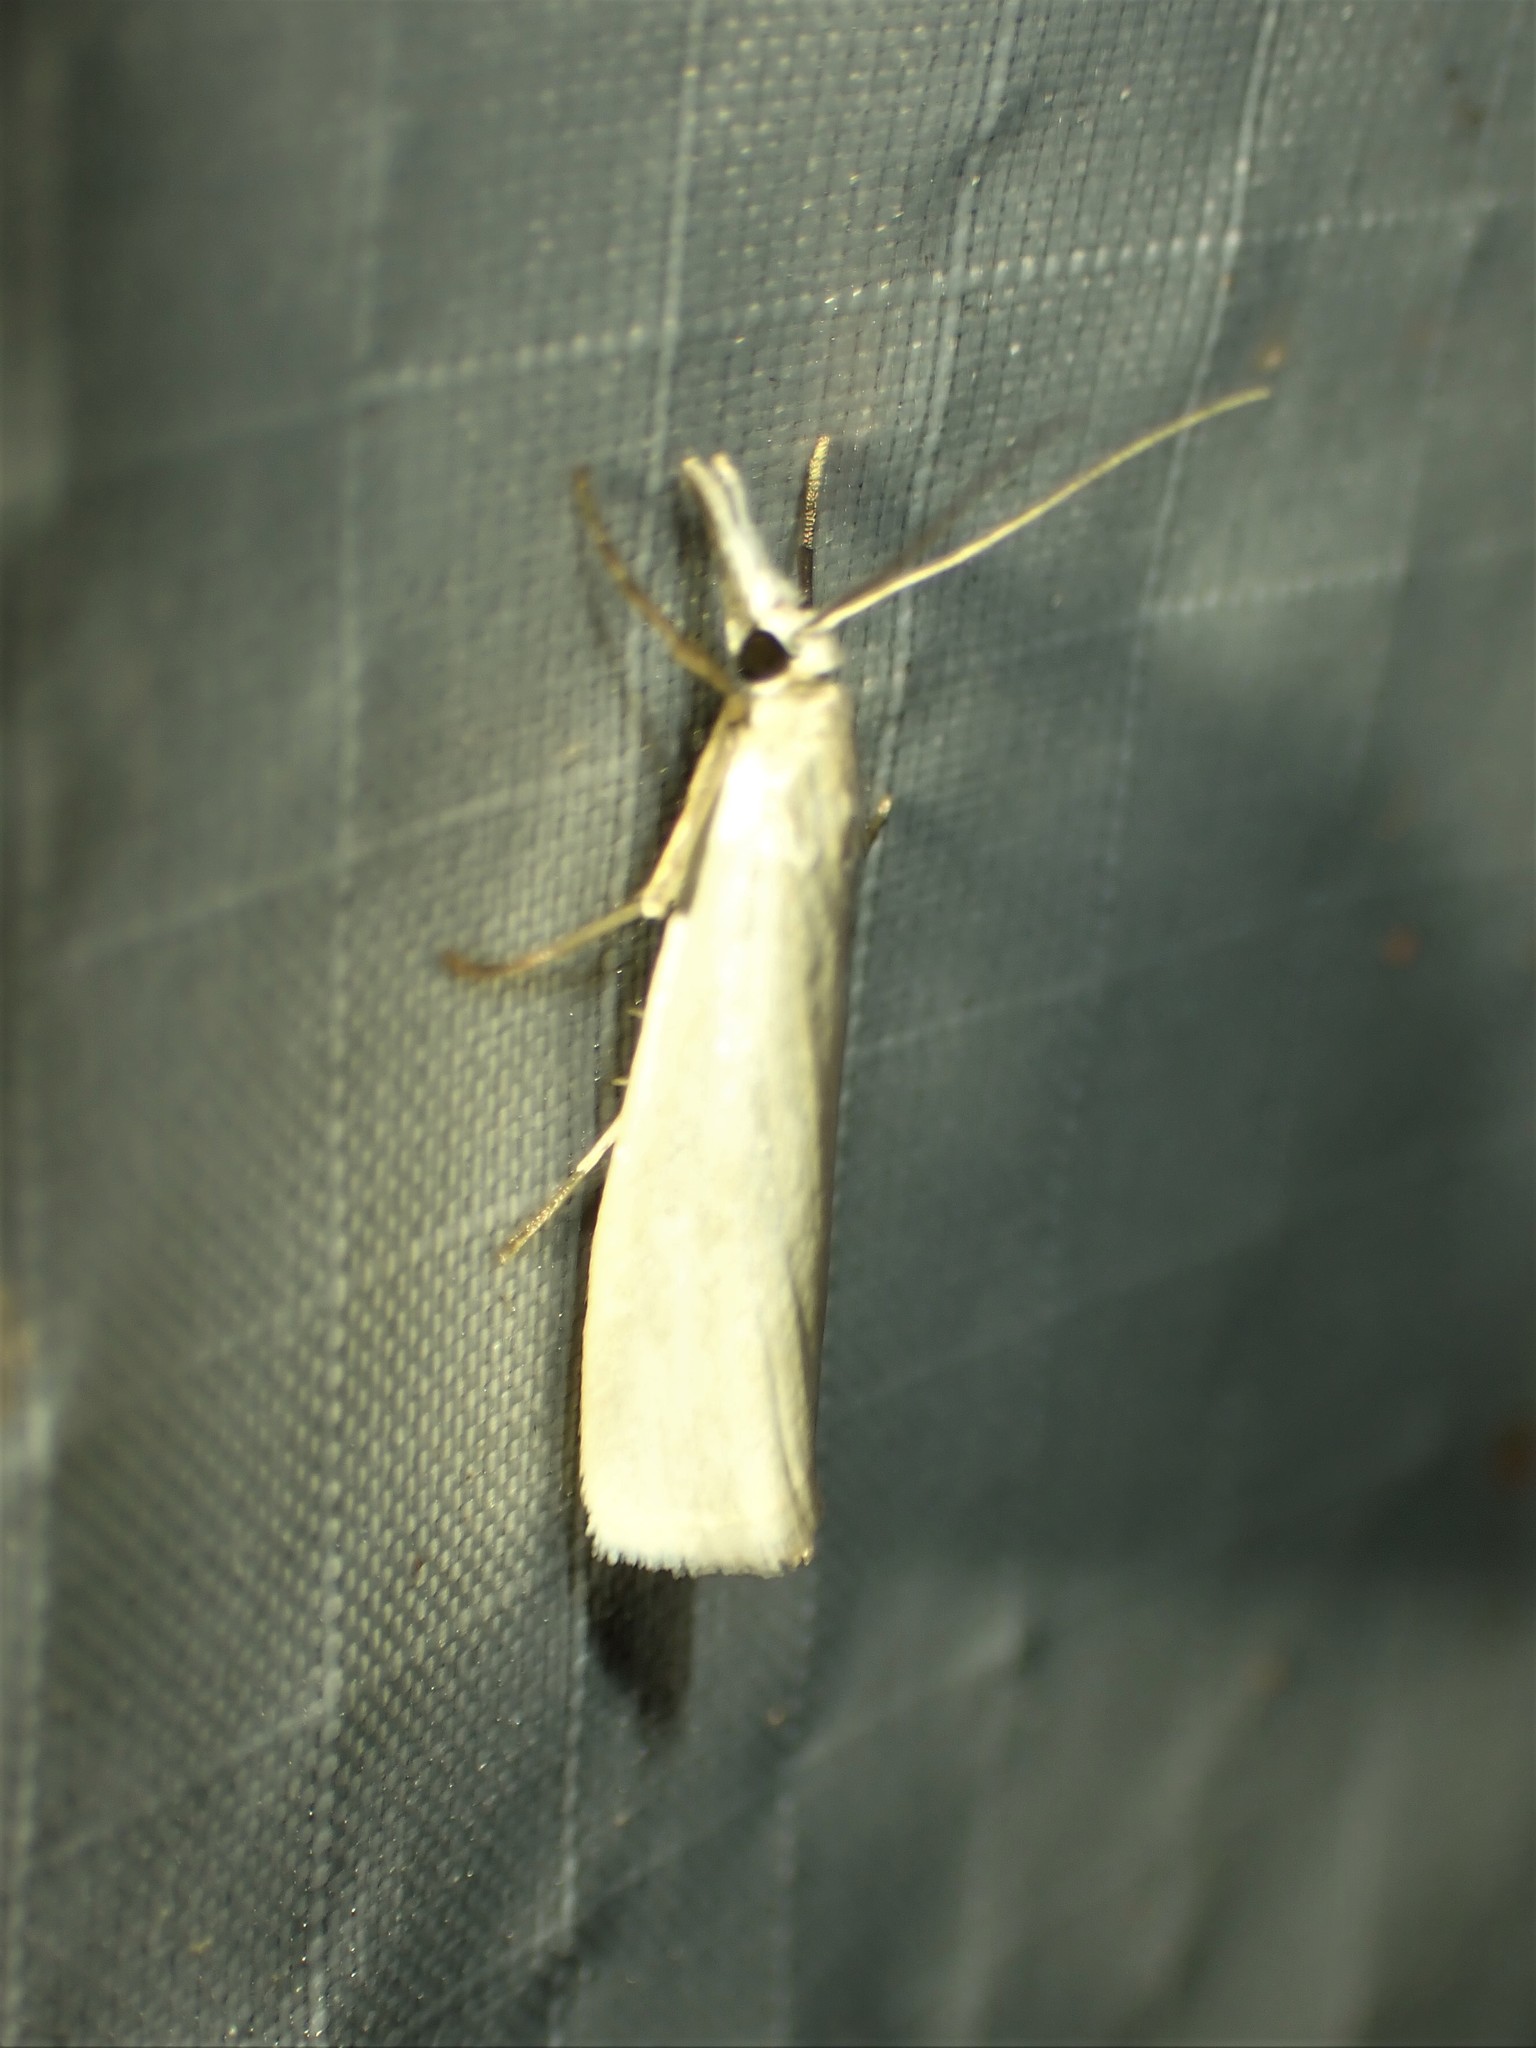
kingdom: Animalia
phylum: Arthropoda
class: Insecta
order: Lepidoptera
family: Crambidae
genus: Crambus
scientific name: Crambus perlellus
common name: Yellow satin veneer
